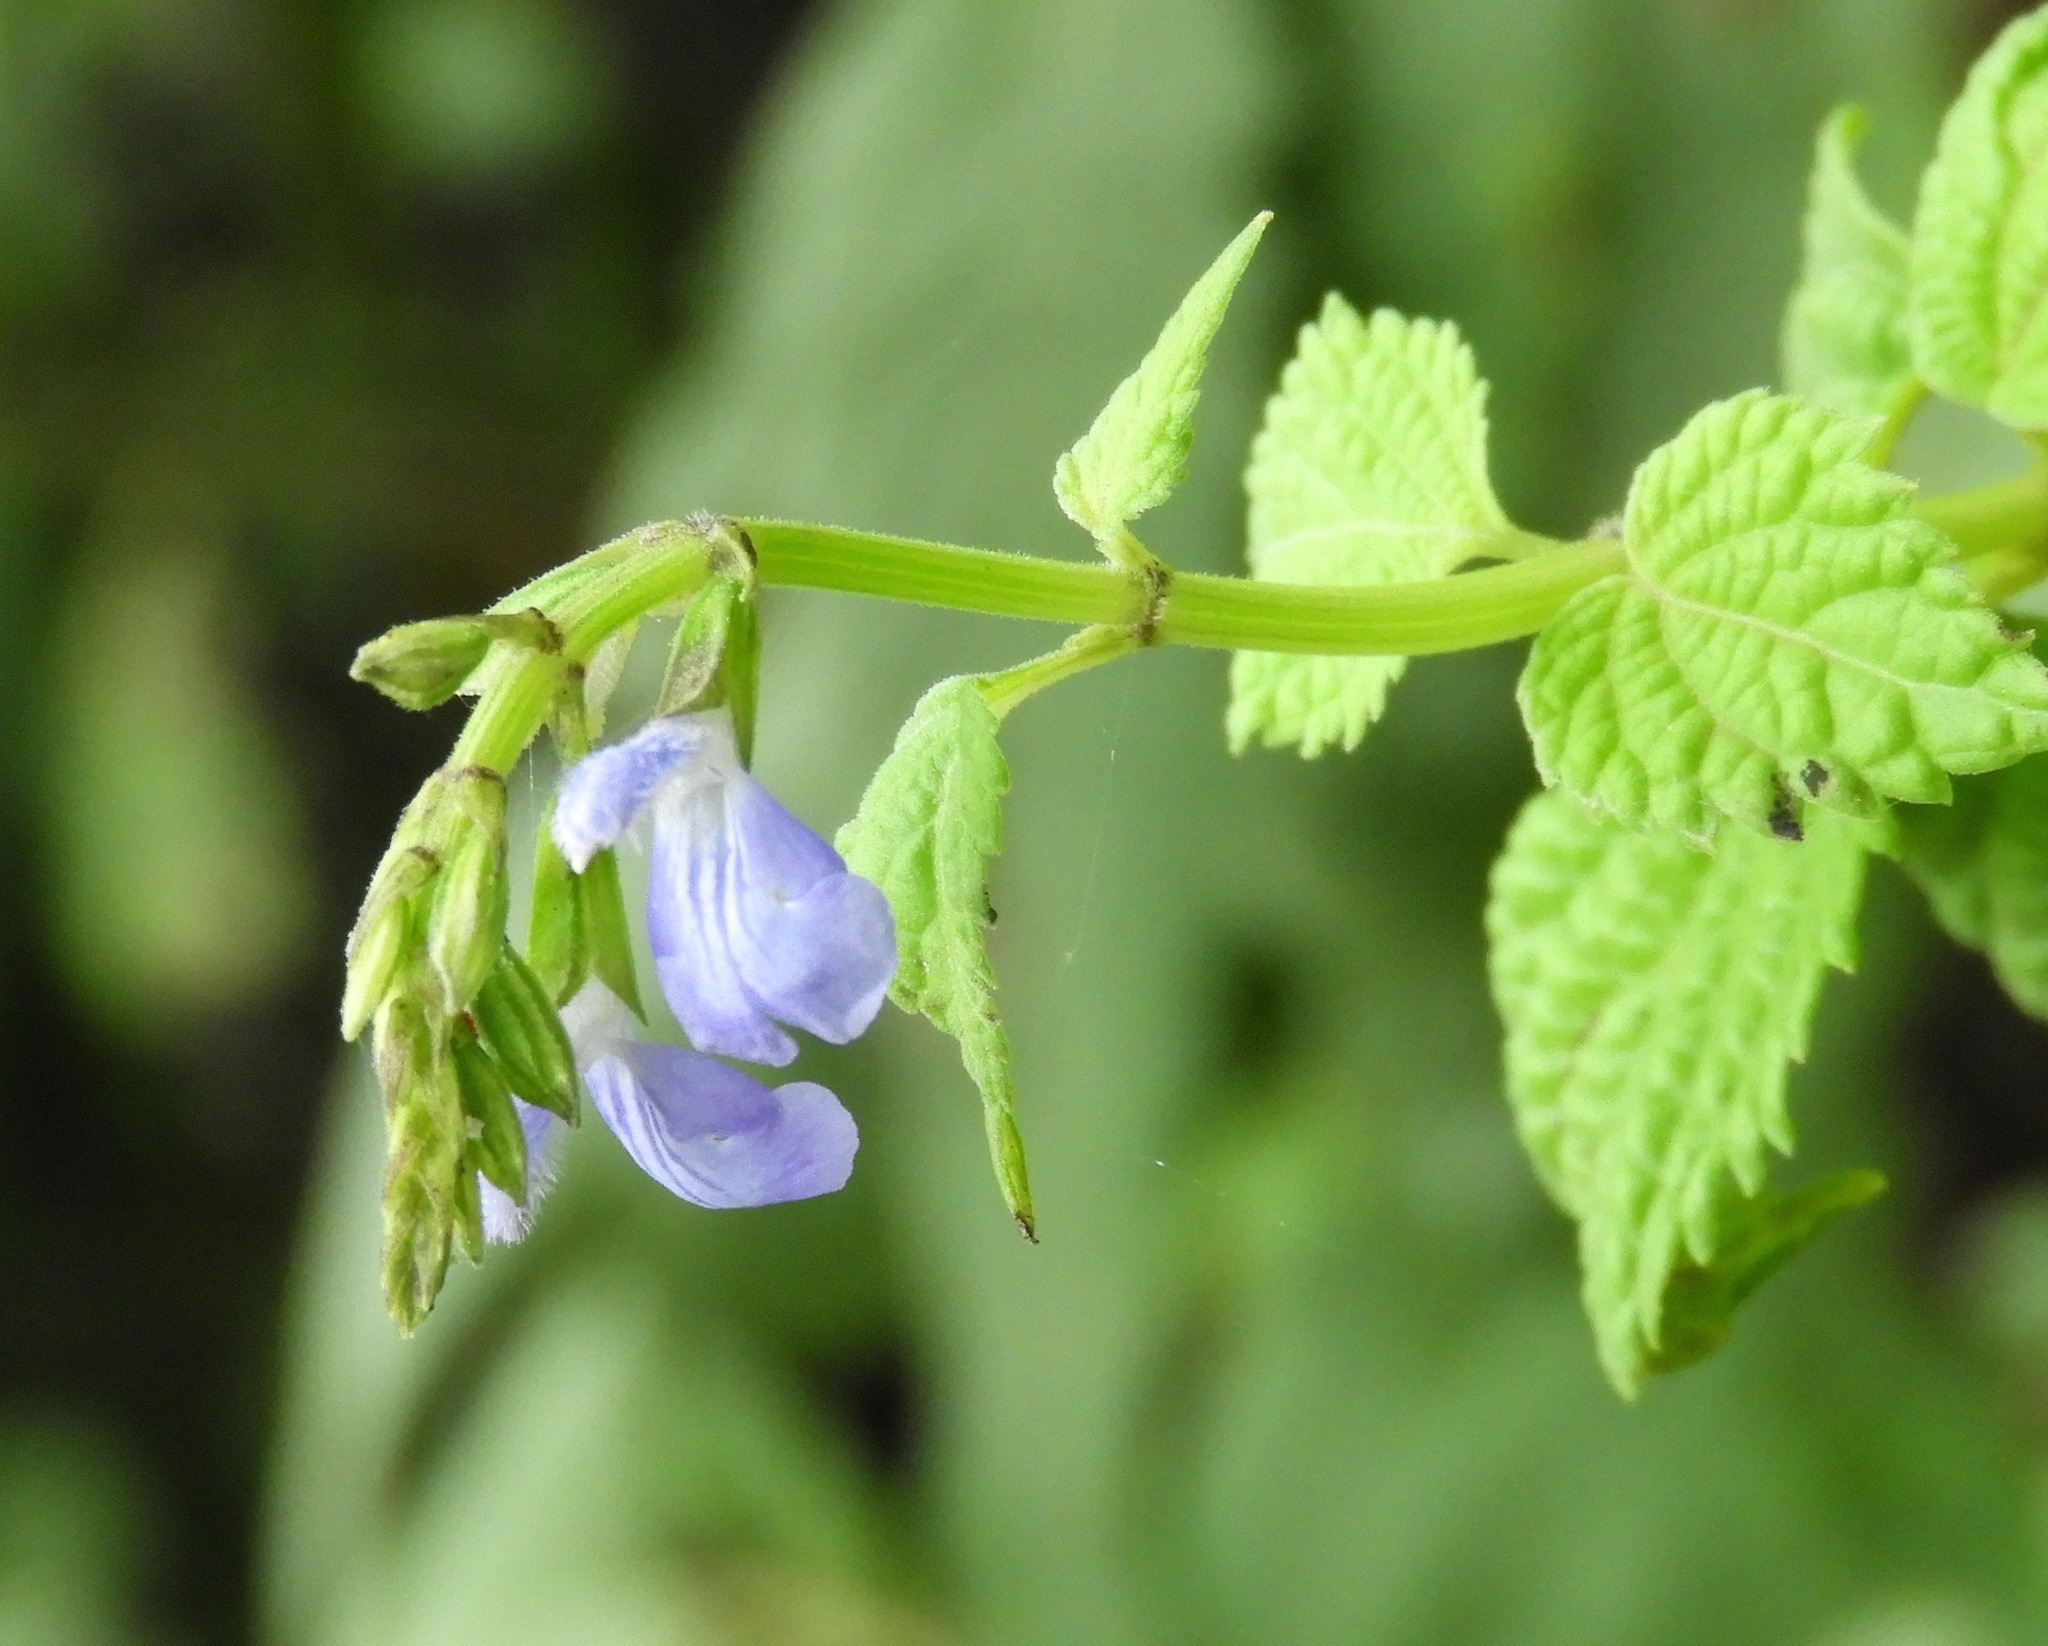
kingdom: Plantae
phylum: Tracheophyta
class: Magnoliopsida
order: Lamiales
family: Lamiaceae
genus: Salvia
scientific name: Salvia languidula
